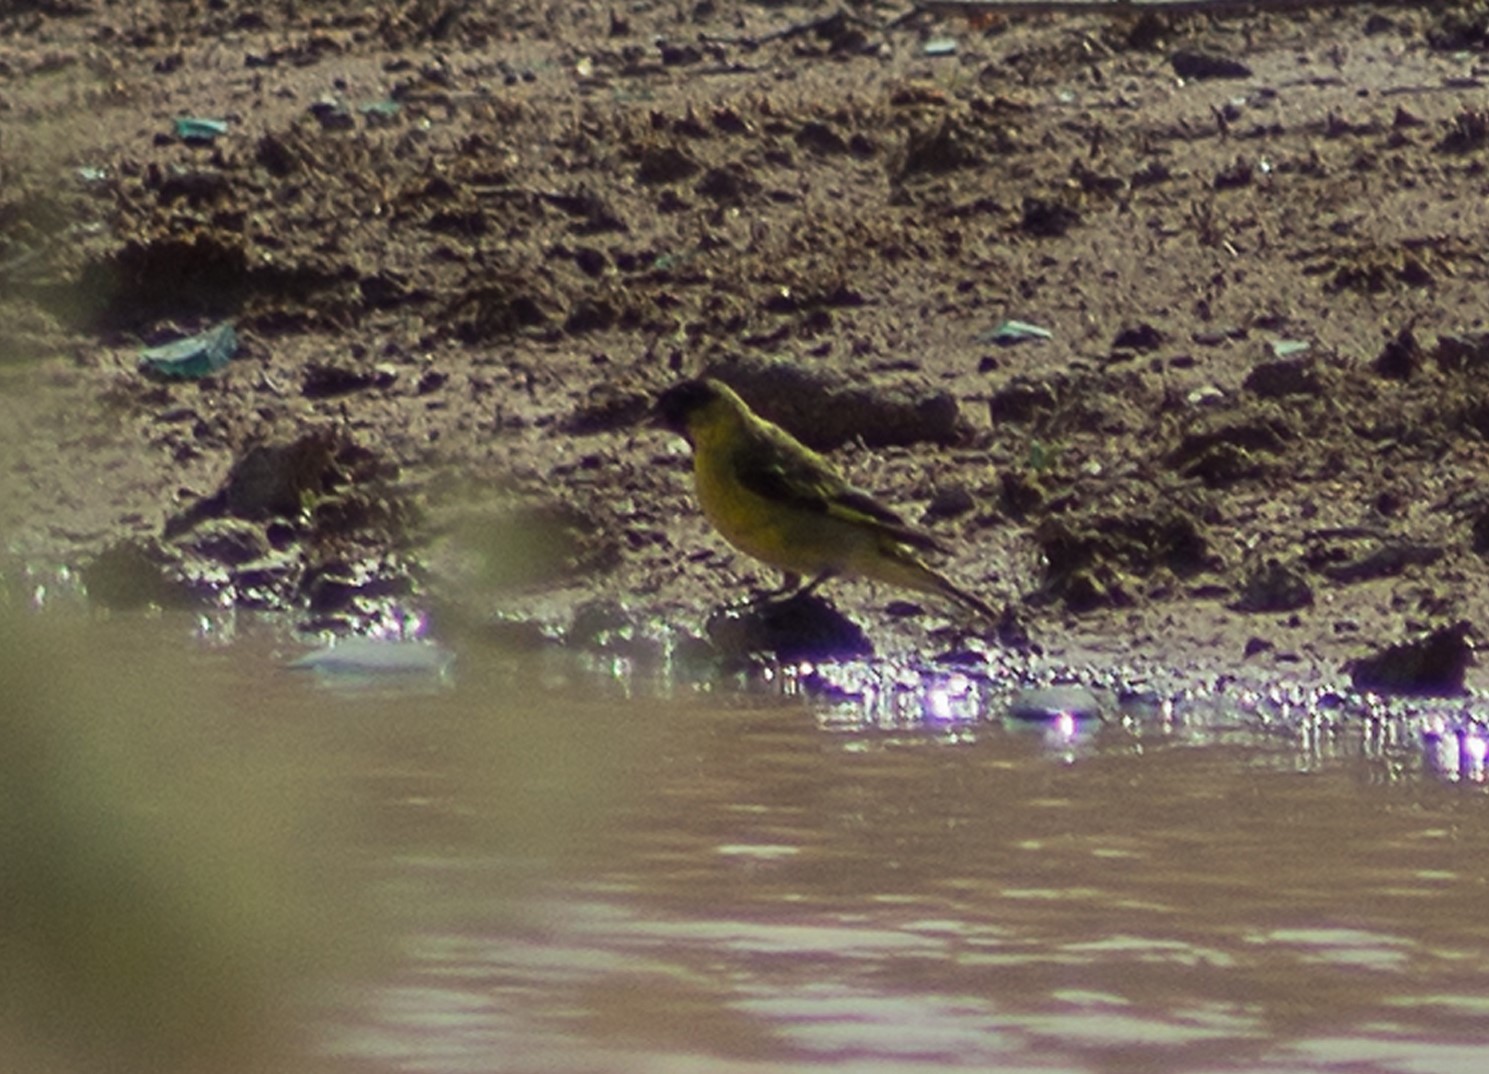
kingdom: Animalia
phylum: Chordata
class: Aves
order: Passeriformes
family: Fringillidae
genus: Spinus
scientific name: Spinus magellanicus
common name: Hooded siskin
